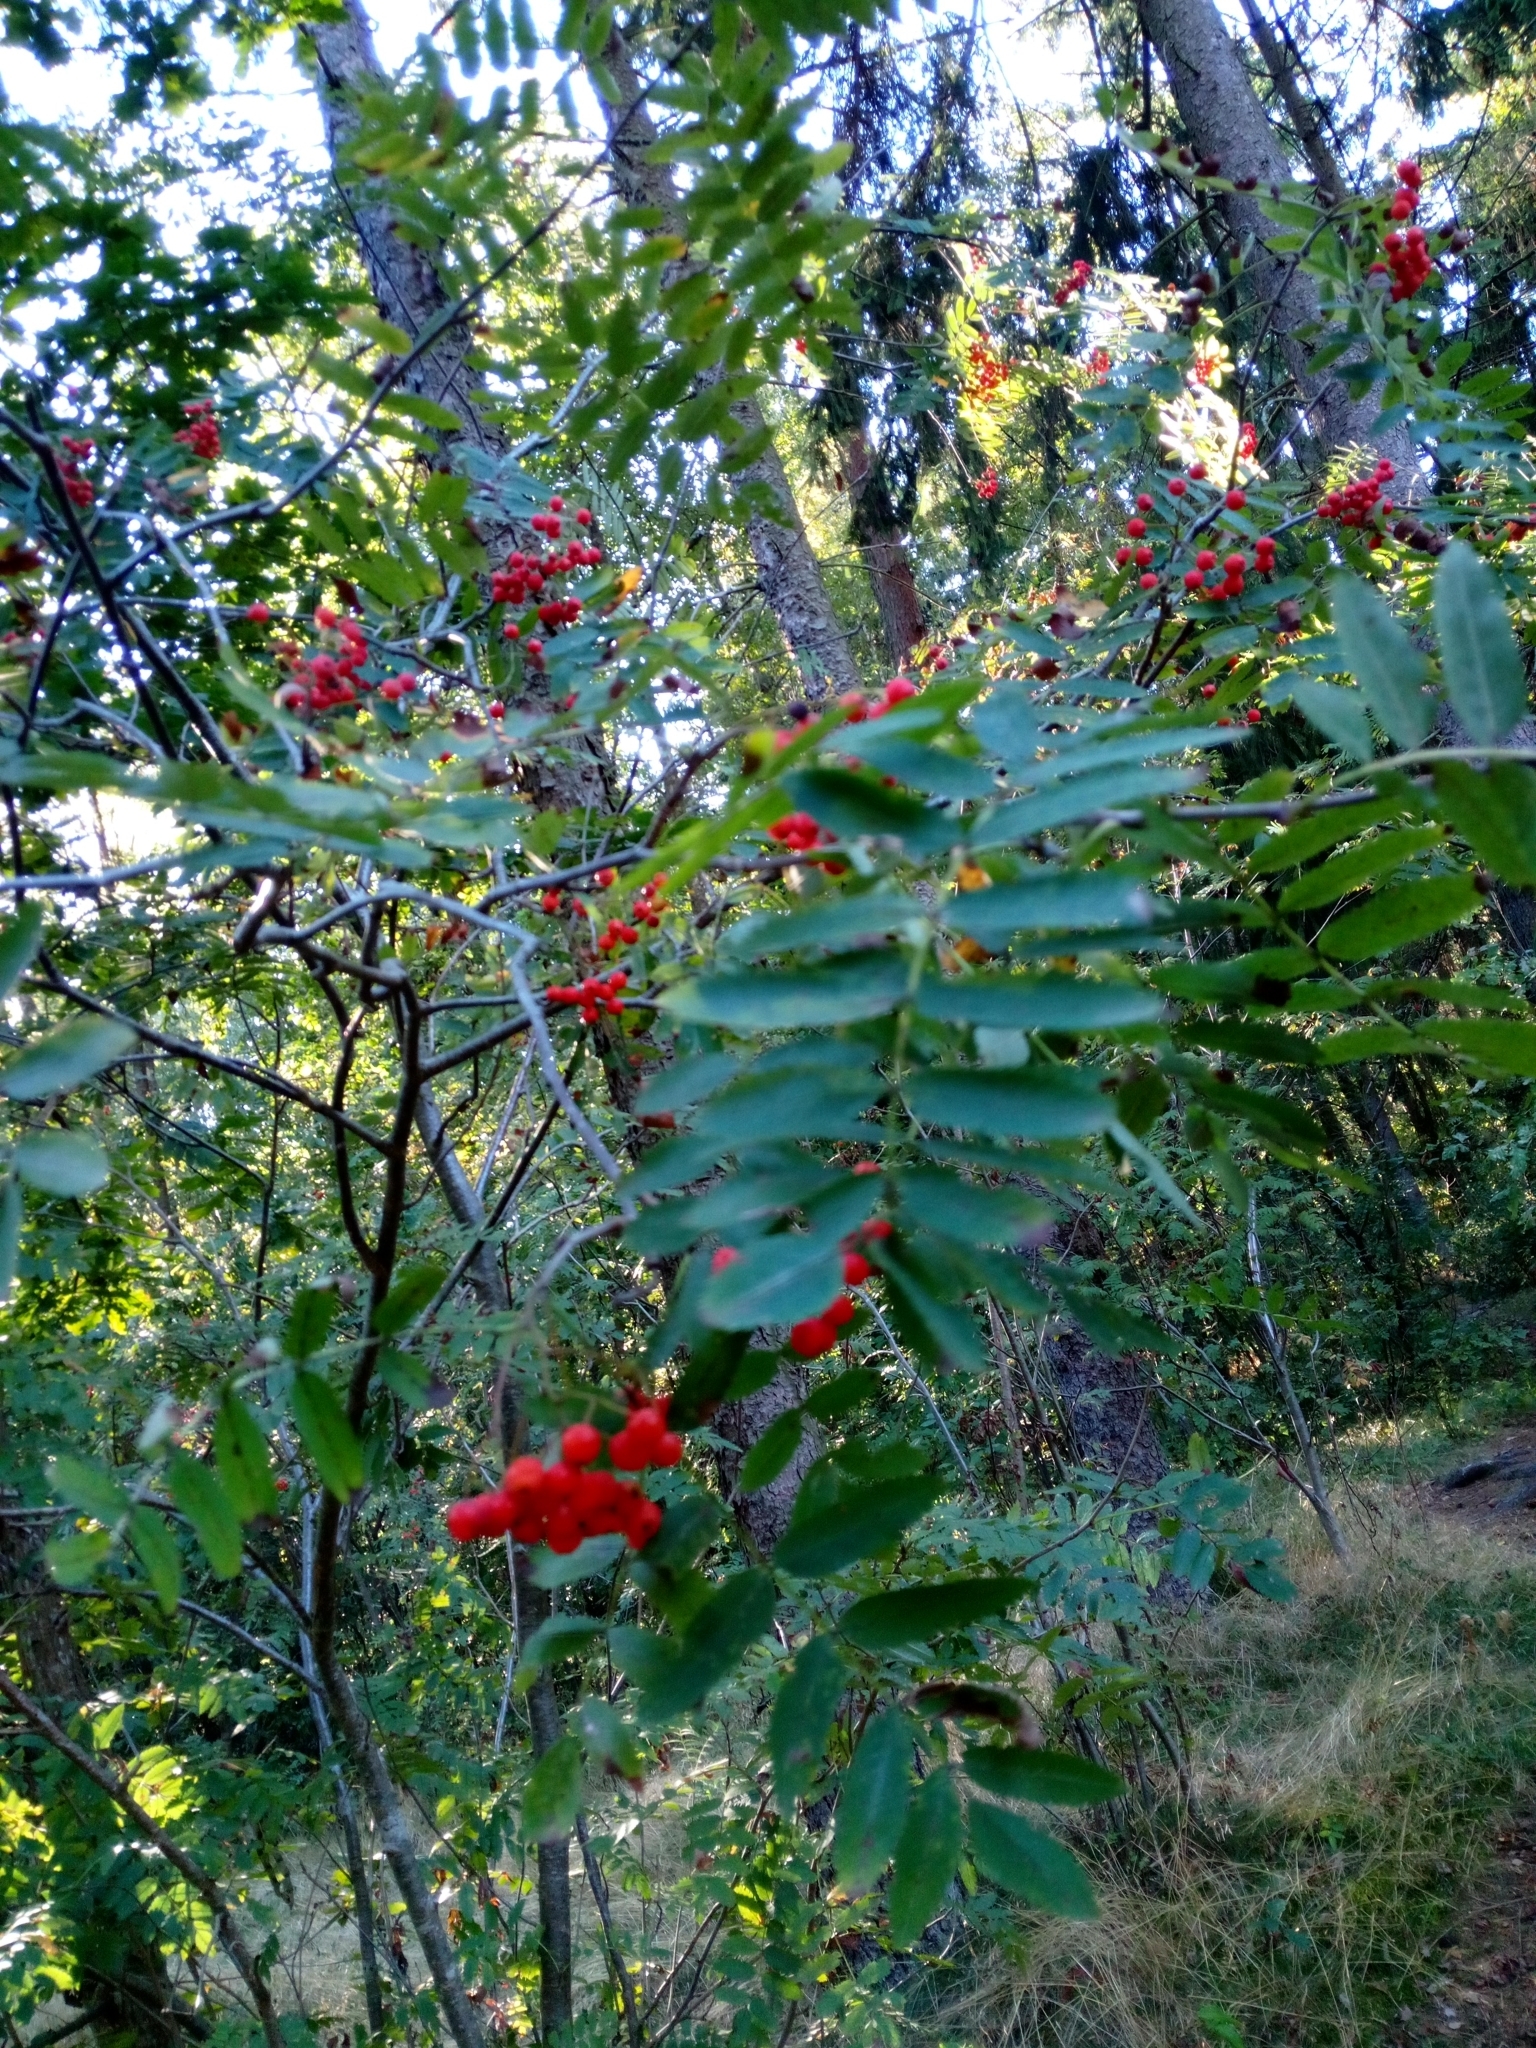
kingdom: Plantae
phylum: Tracheophyta
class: Magnoliopsida
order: Rosales
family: Rosaceae
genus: Sorbus
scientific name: Sorbus aucuparia
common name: Rowan
